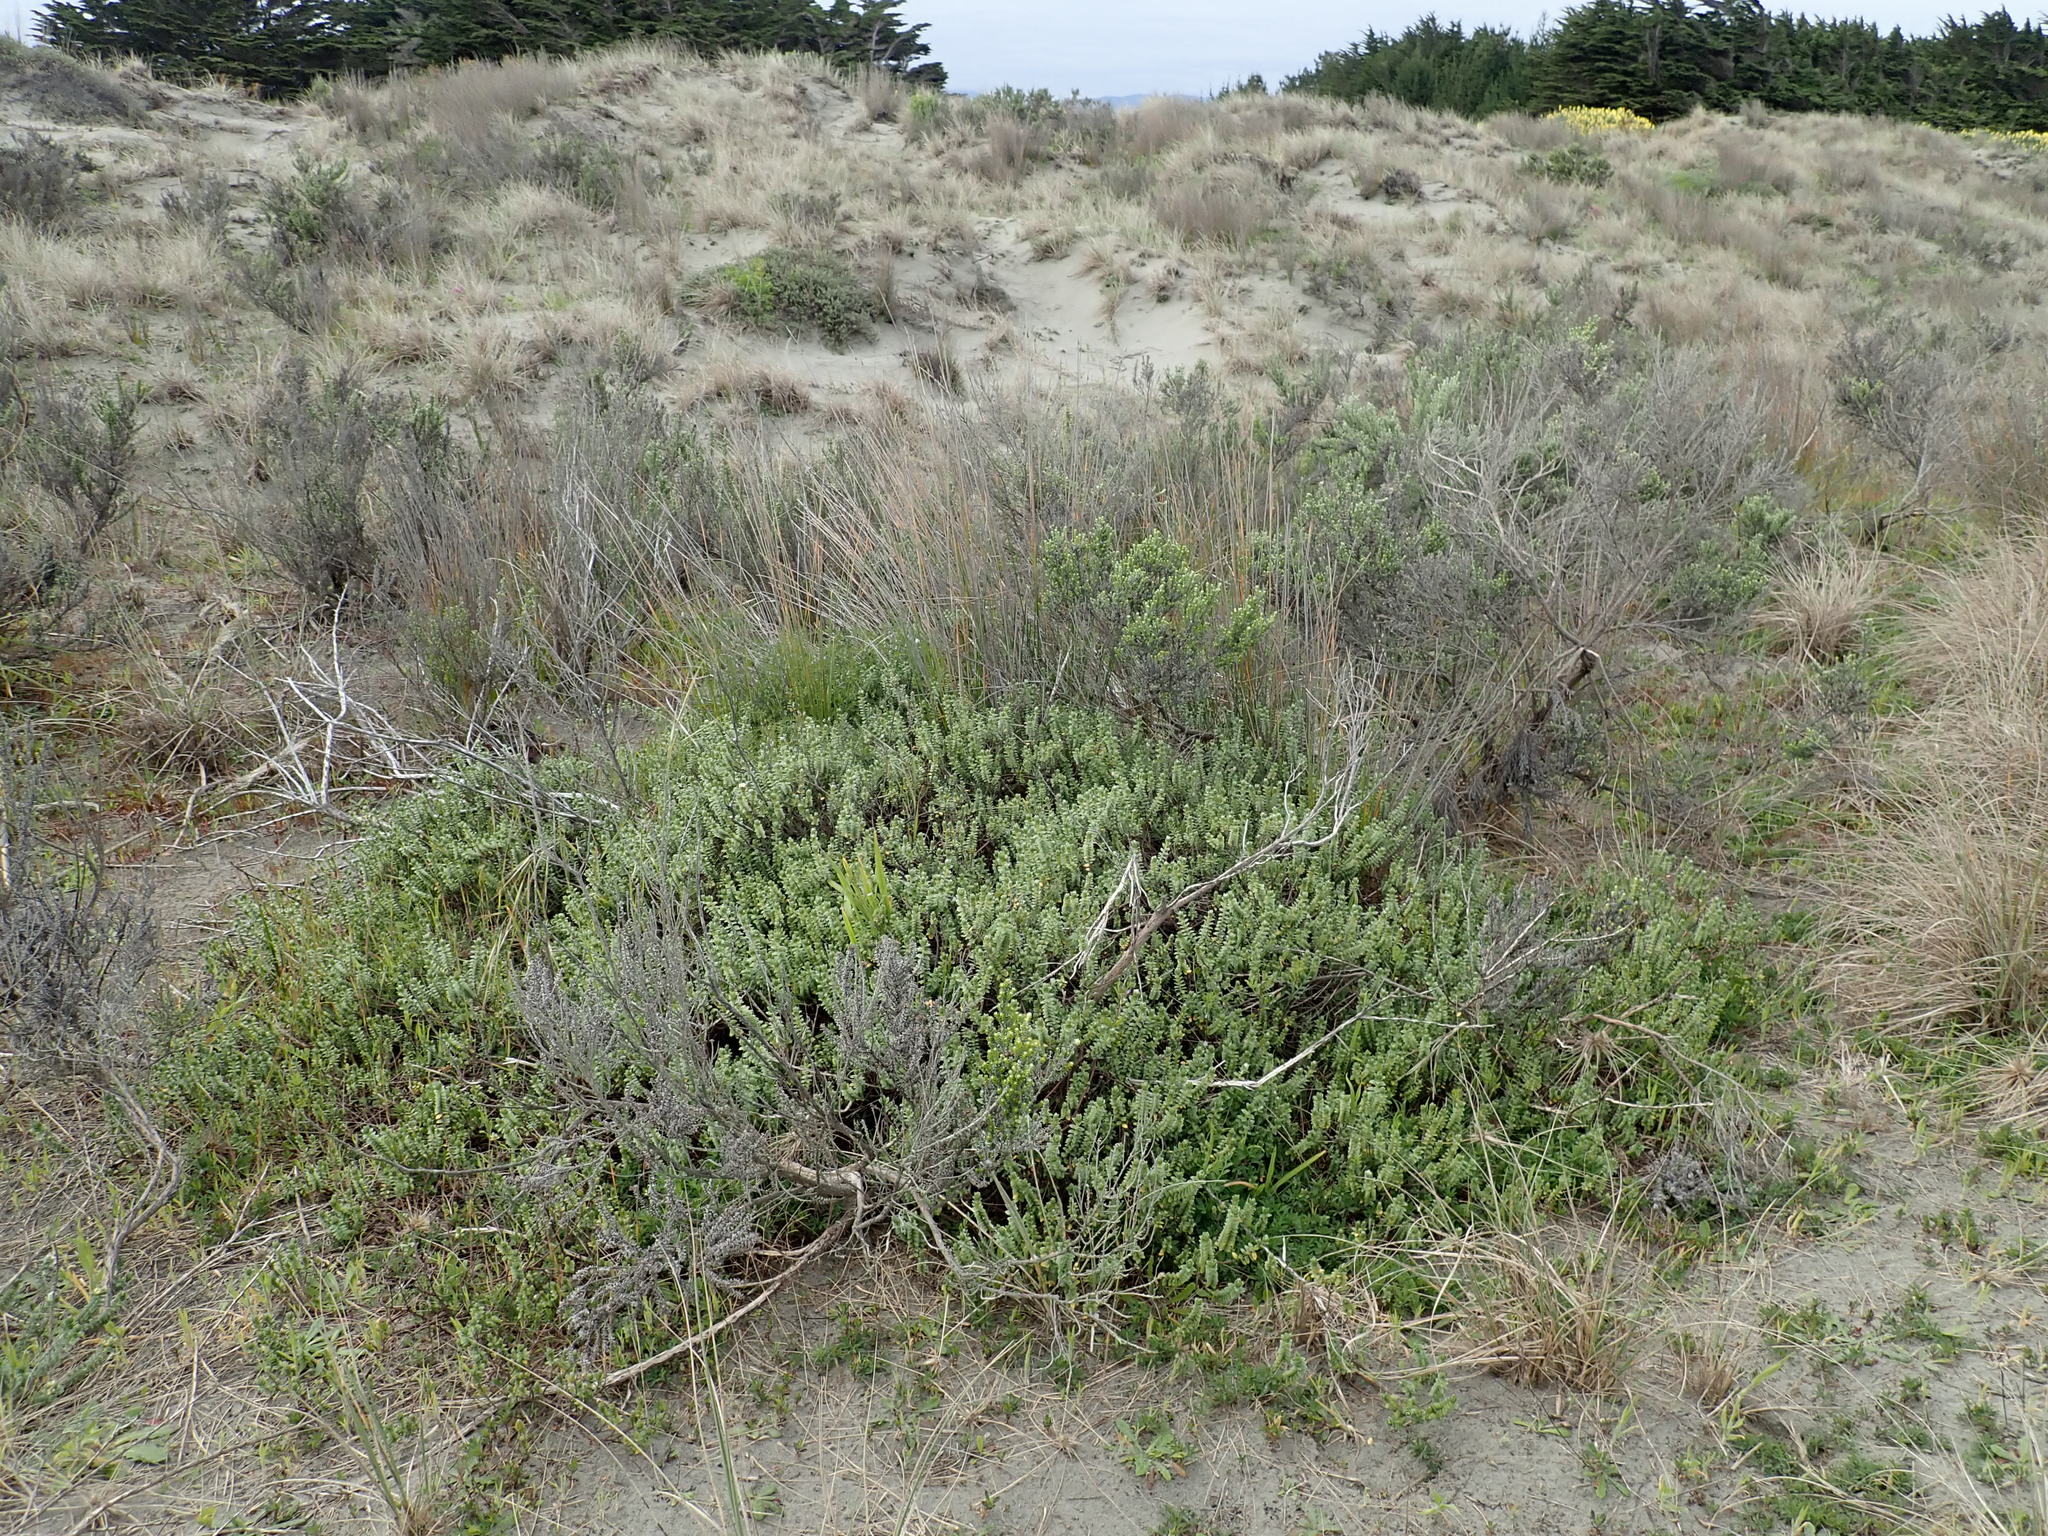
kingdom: Plantae
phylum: Tracheophyta
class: Magnoliopsida
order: Malvales
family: Thymelaeaceae
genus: Pimelea
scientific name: Pimelea villosa
